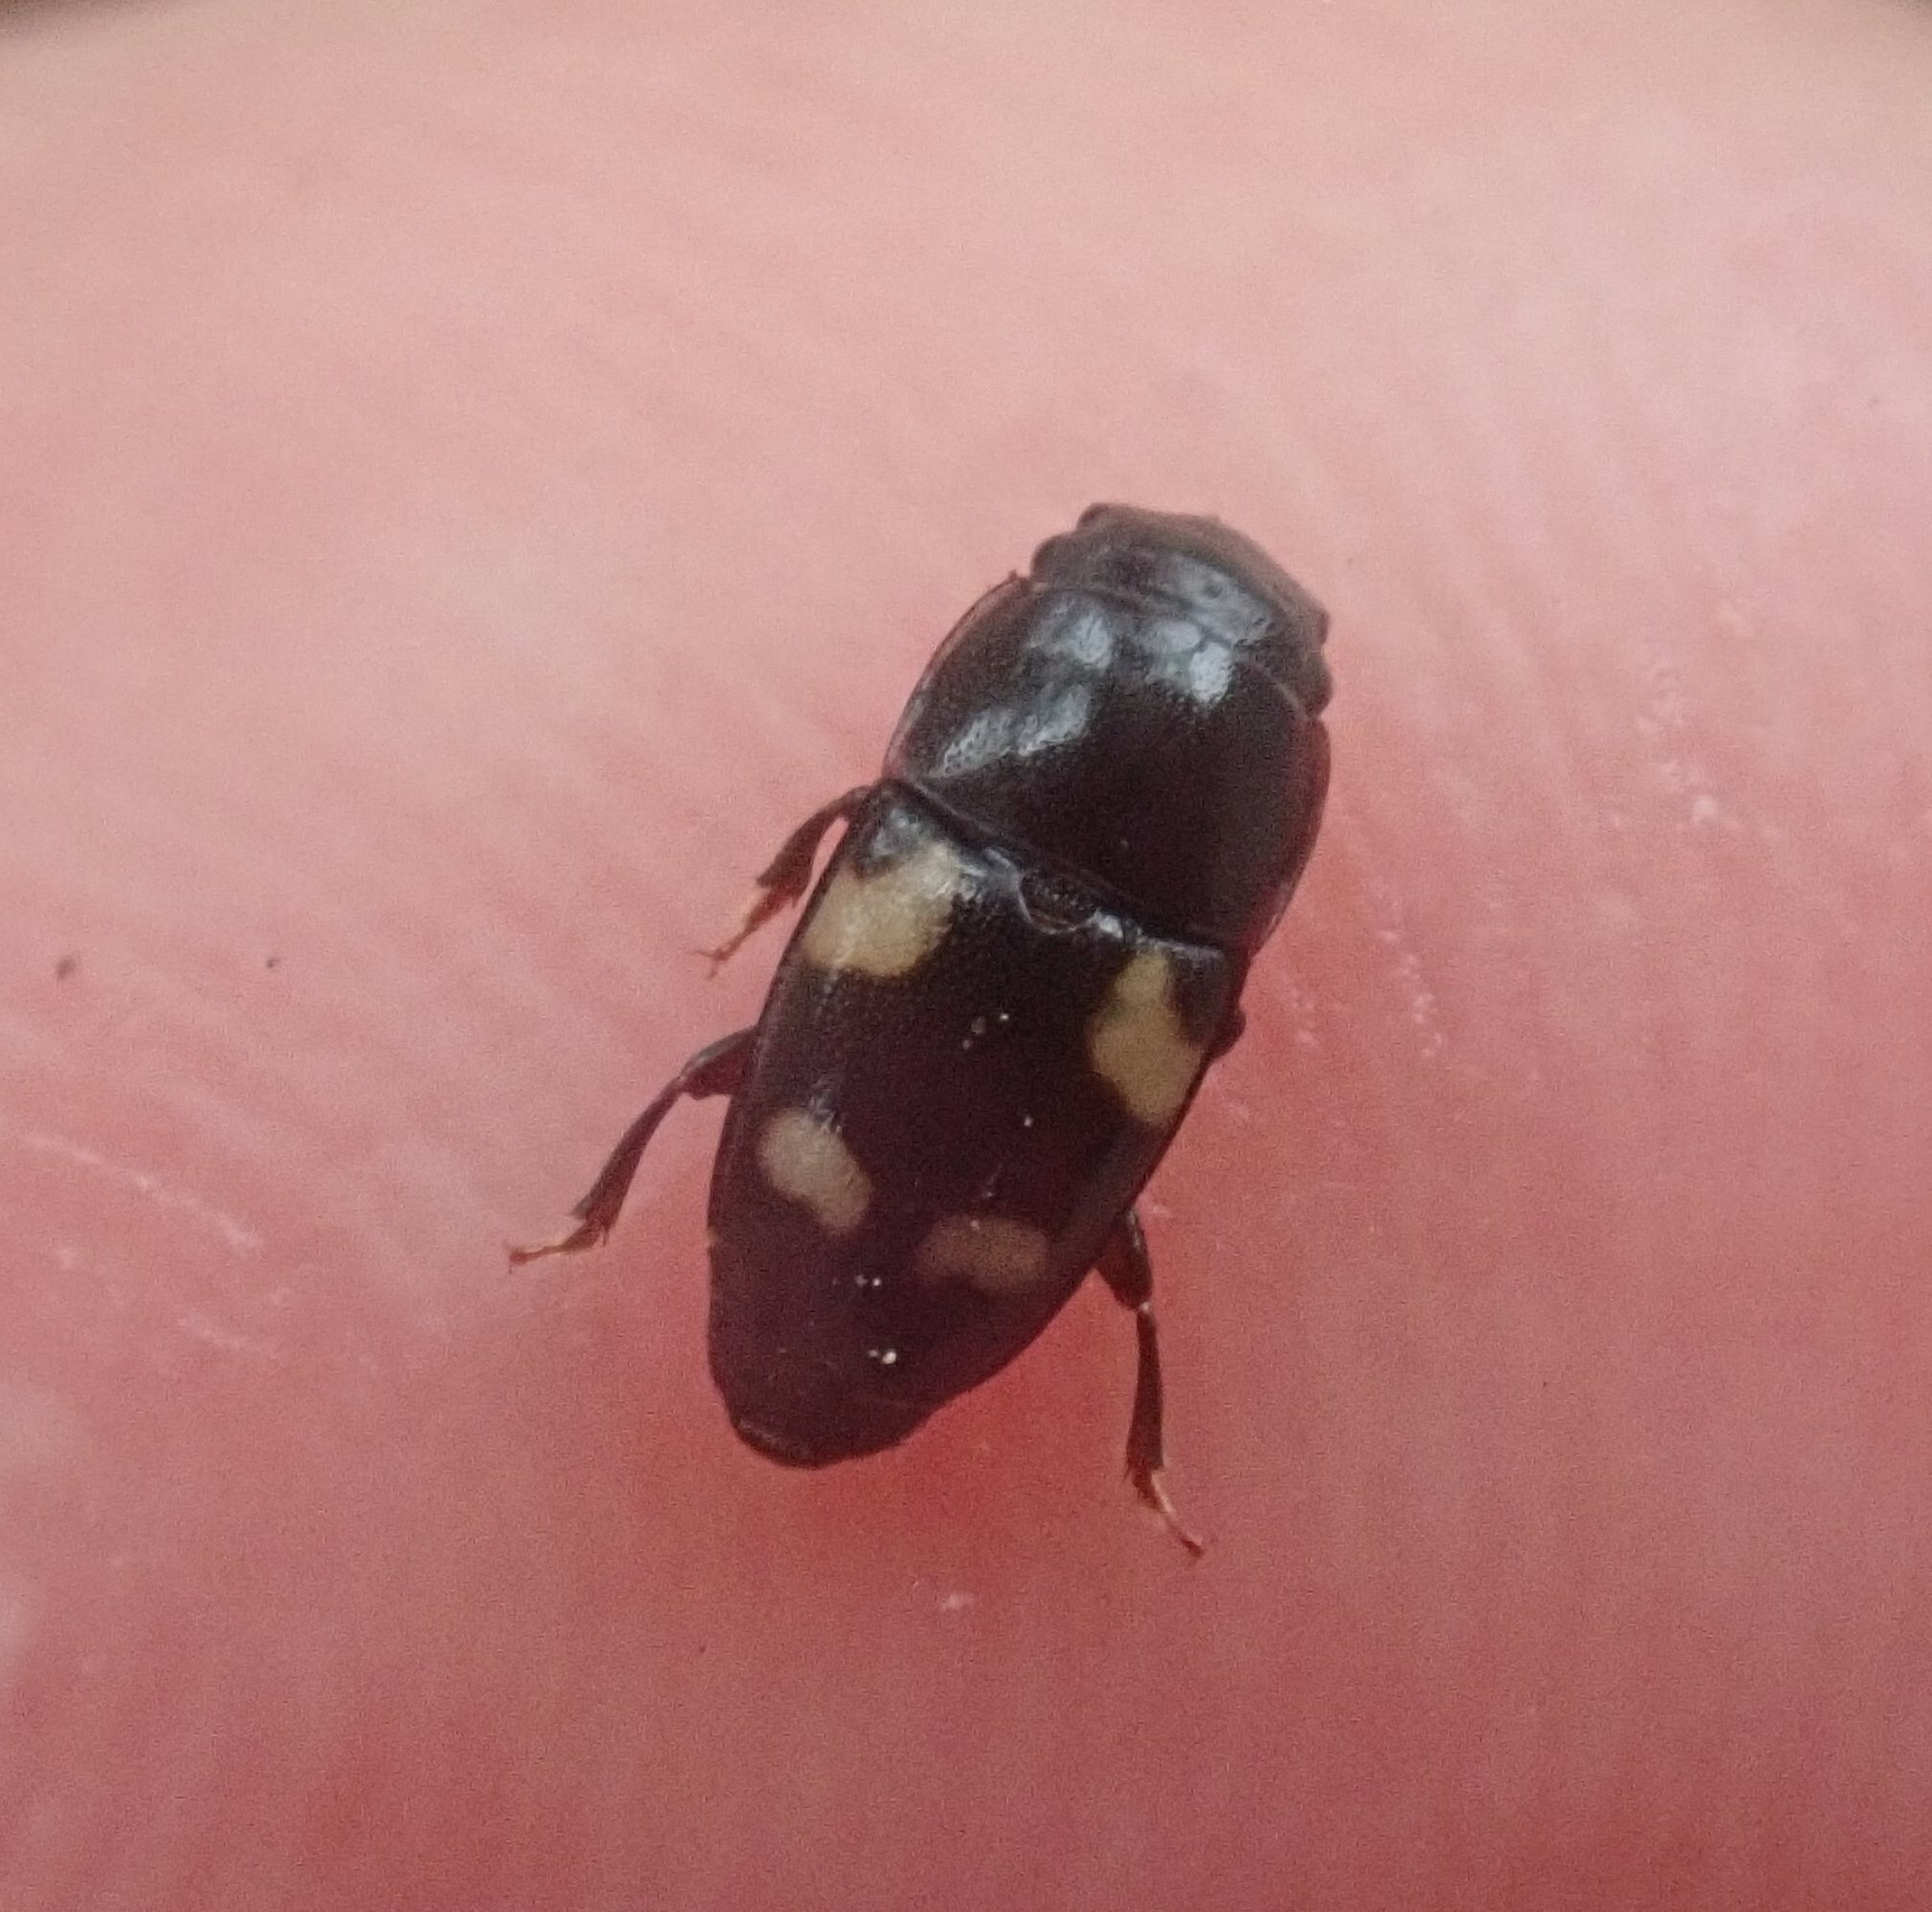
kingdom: Animalia
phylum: Arthropoda
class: Insecta
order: Coleoptera
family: Nitidulidae
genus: Glischrochilus
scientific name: Glischrochilus quadrisignatus
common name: Picnic beetle
